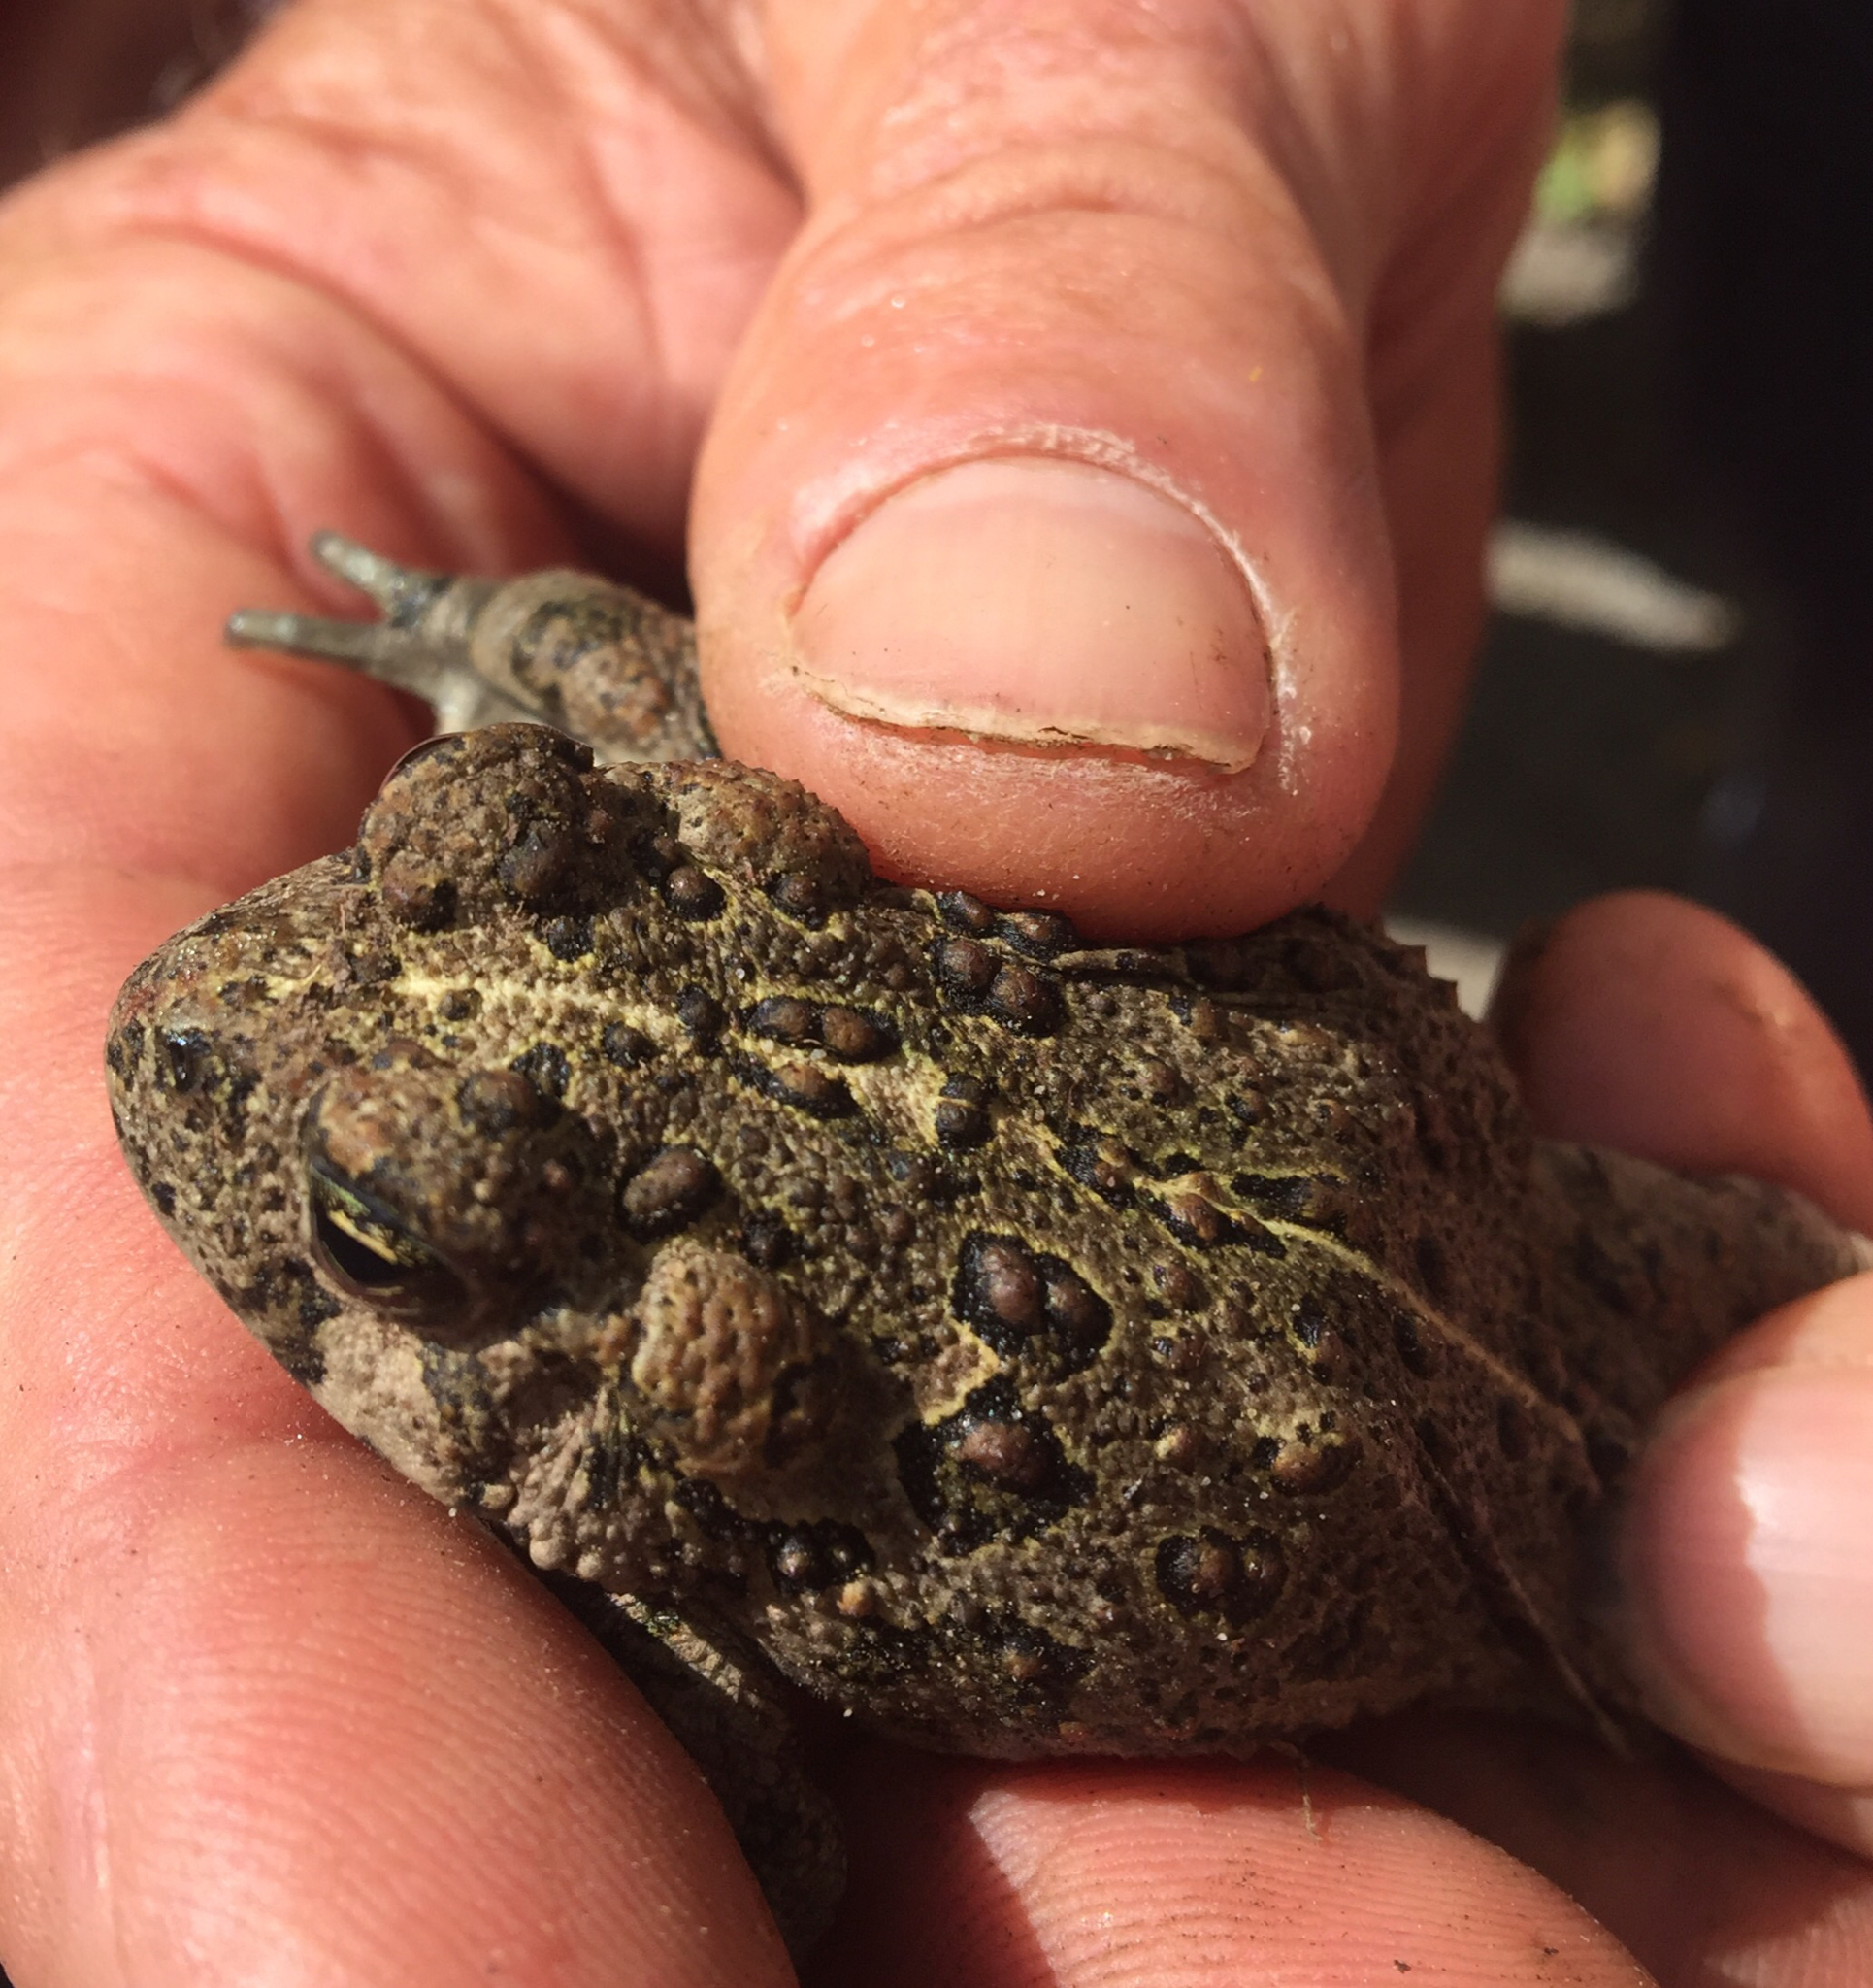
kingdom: Animalia
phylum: Chordata
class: Amphibia
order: Anura
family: Bufonidae
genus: Anaxyrus
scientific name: Anaxyrus boreas
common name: Western toad
